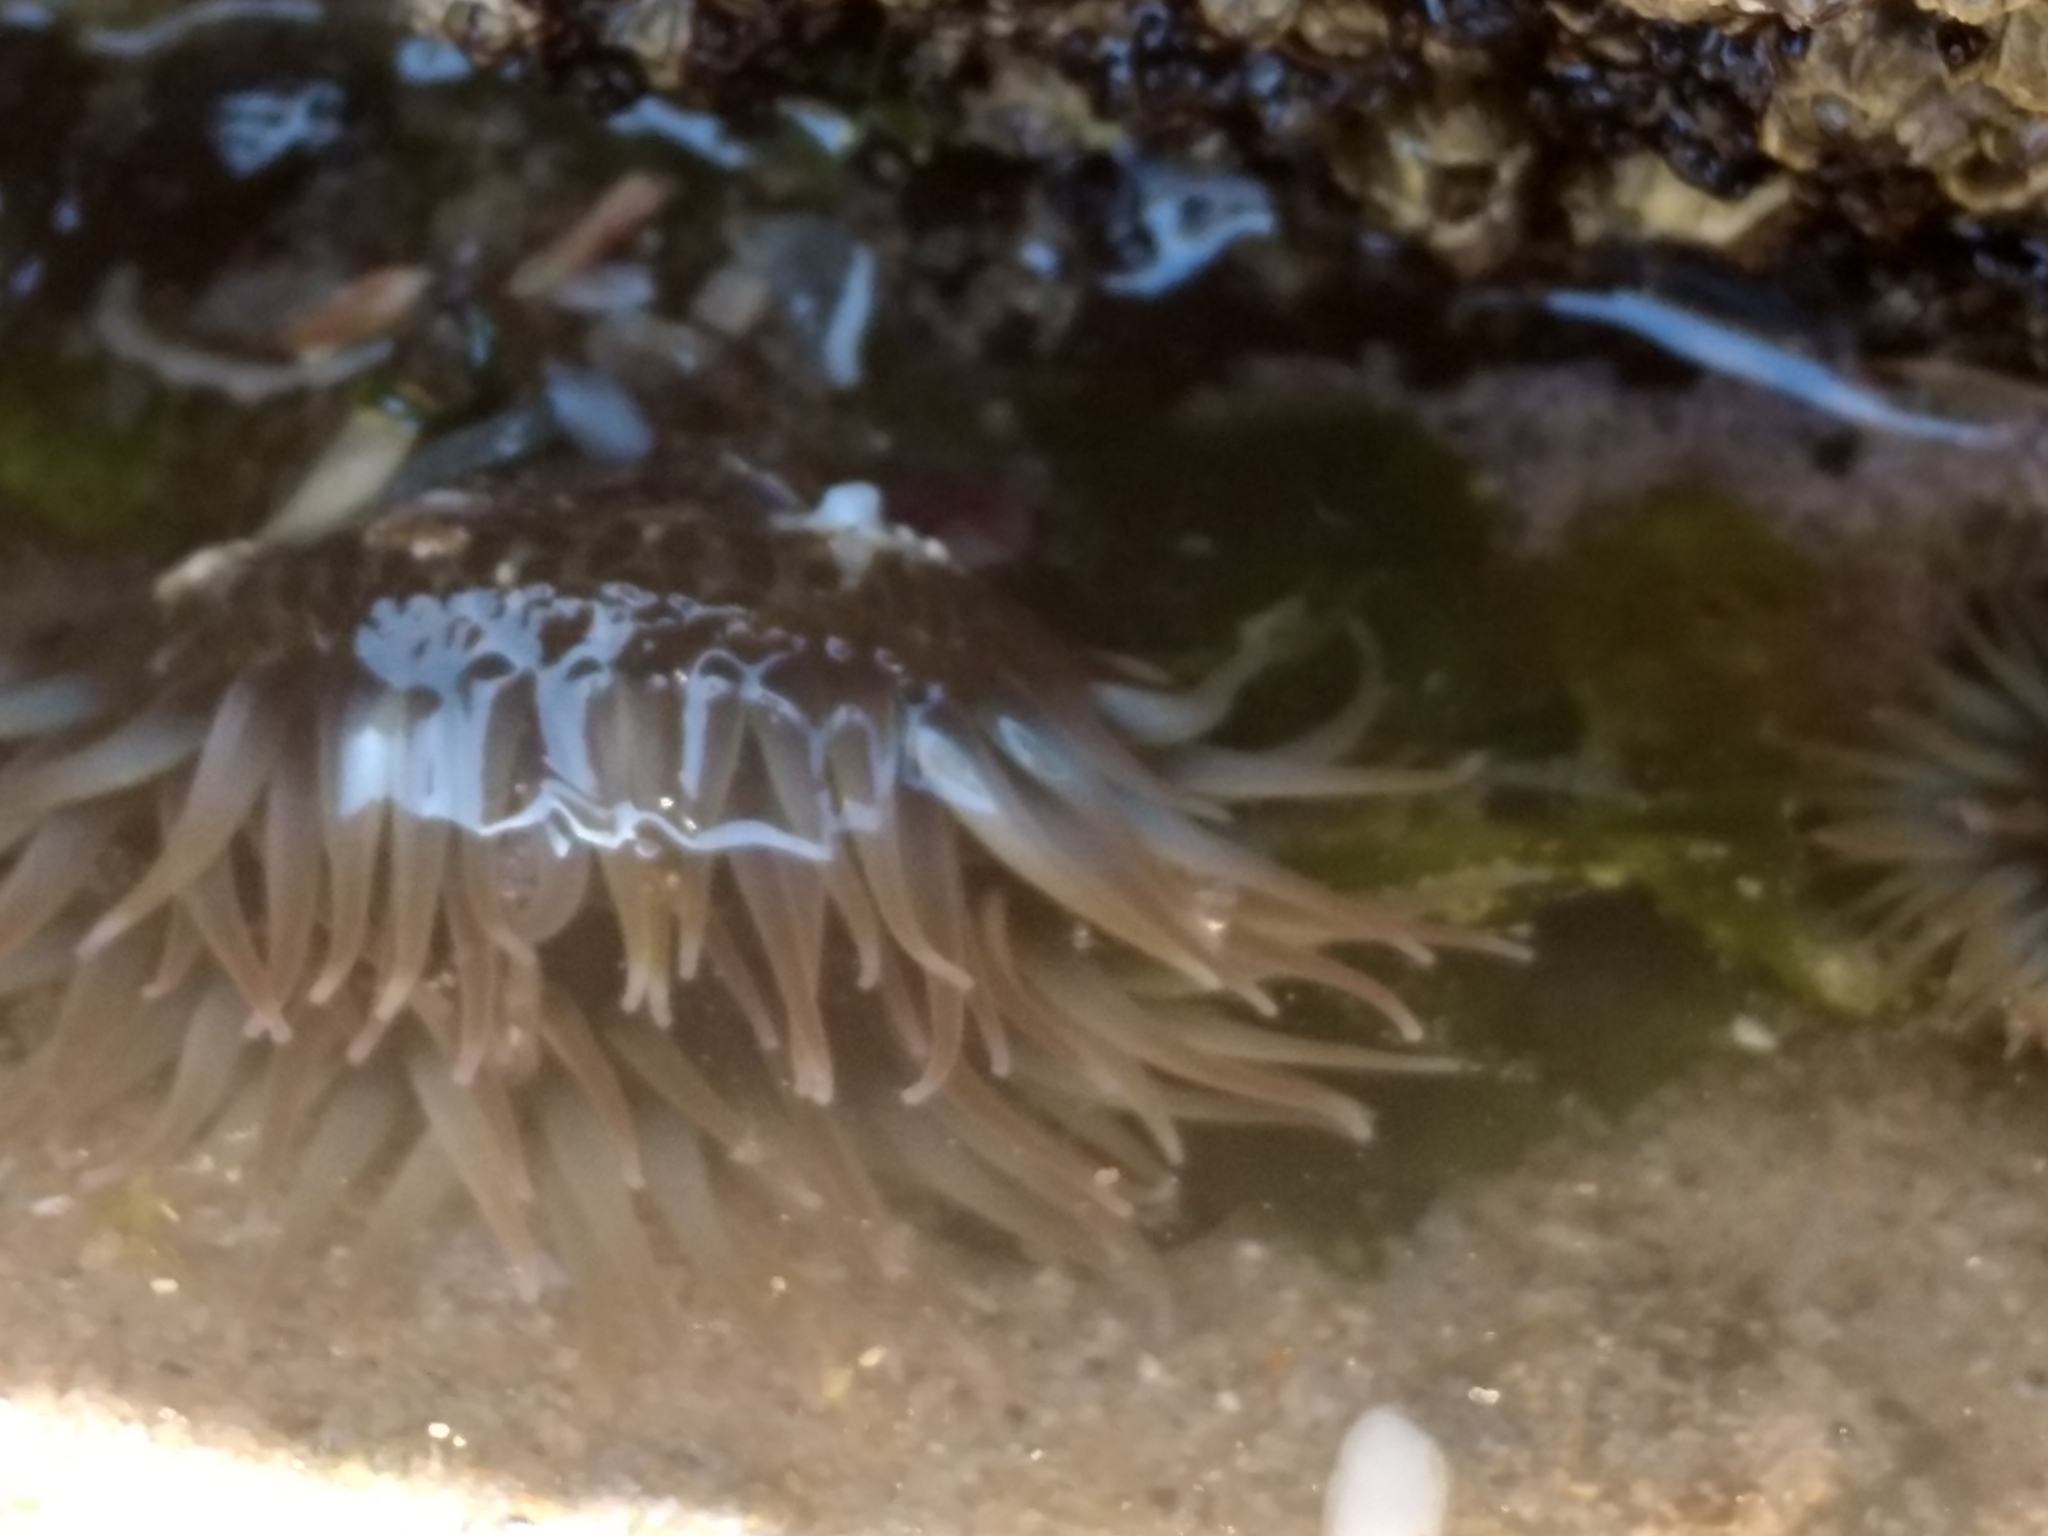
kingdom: Animalia
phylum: Cnidaria
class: Anthozoa
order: Actiniaria
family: Actiniidae
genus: Anthopleura
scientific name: Anthopleura elegantissima
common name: Clonal anemone
